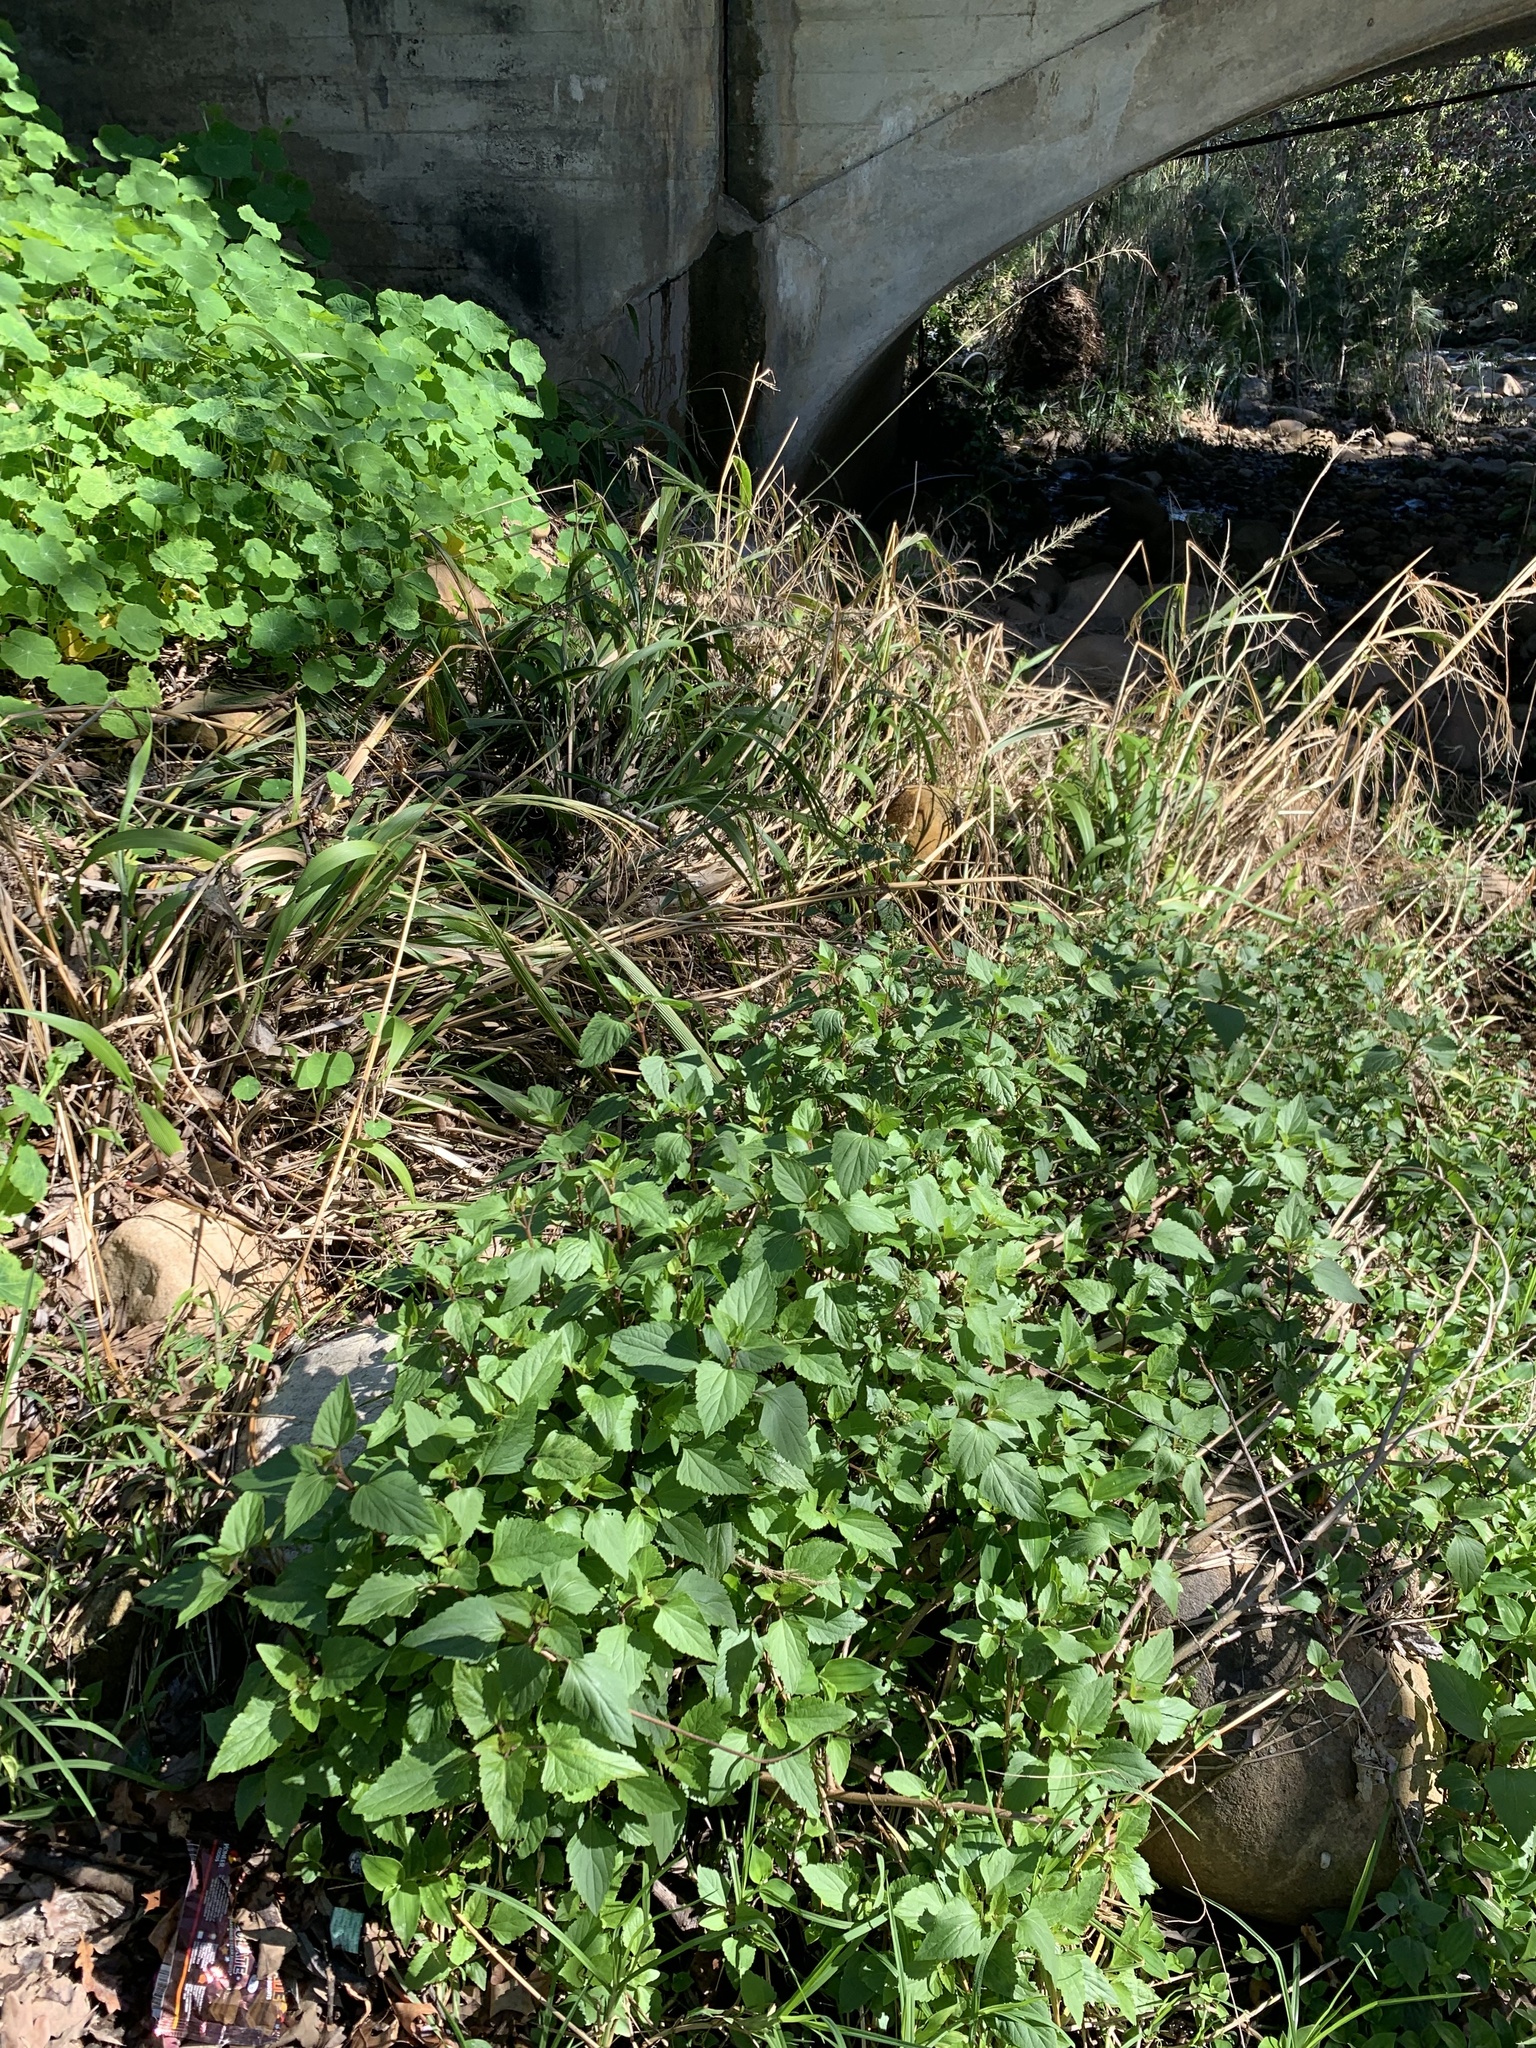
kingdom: Plantae
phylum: Tracheophyta
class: Magnoliopsida
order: Asterales
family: Asteraceae
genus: Ageratina
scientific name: Ageratina adenophora
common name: Sticky snakeroot
